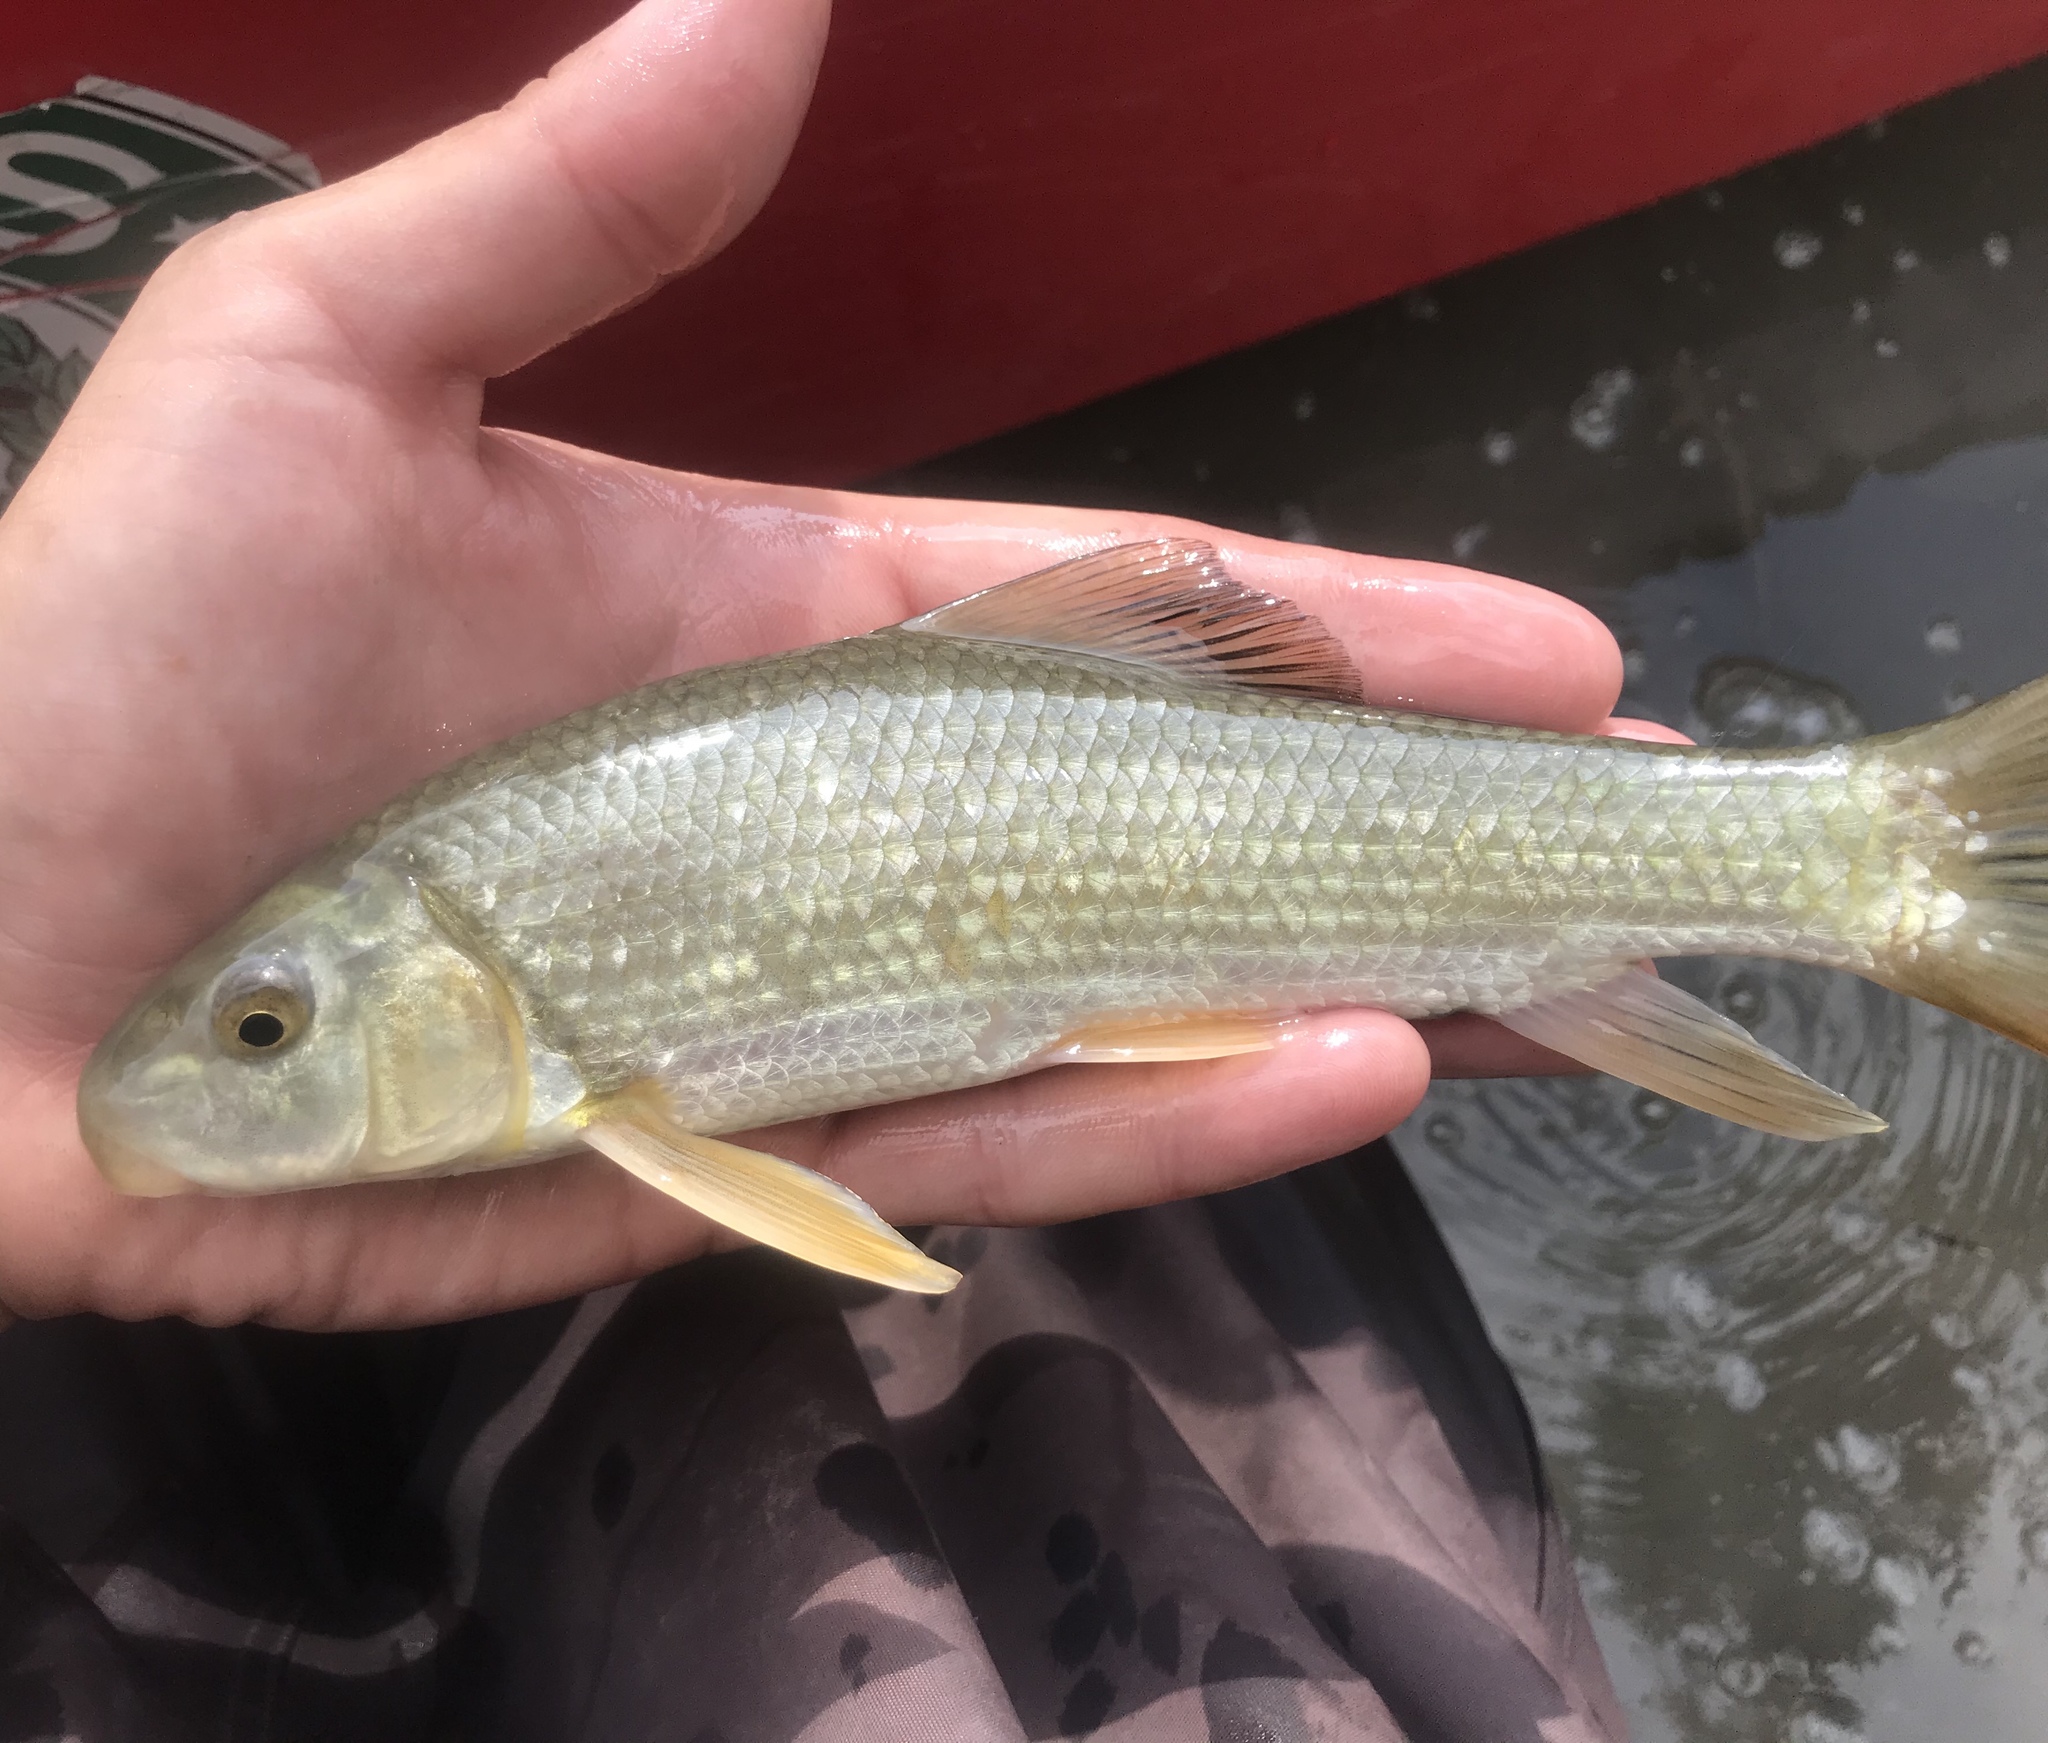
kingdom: Animalia
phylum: Chordata
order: Cypriniformes
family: Catostomidae
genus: Moxostoma
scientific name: Moxostoma congestum
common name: Gray redhorse
